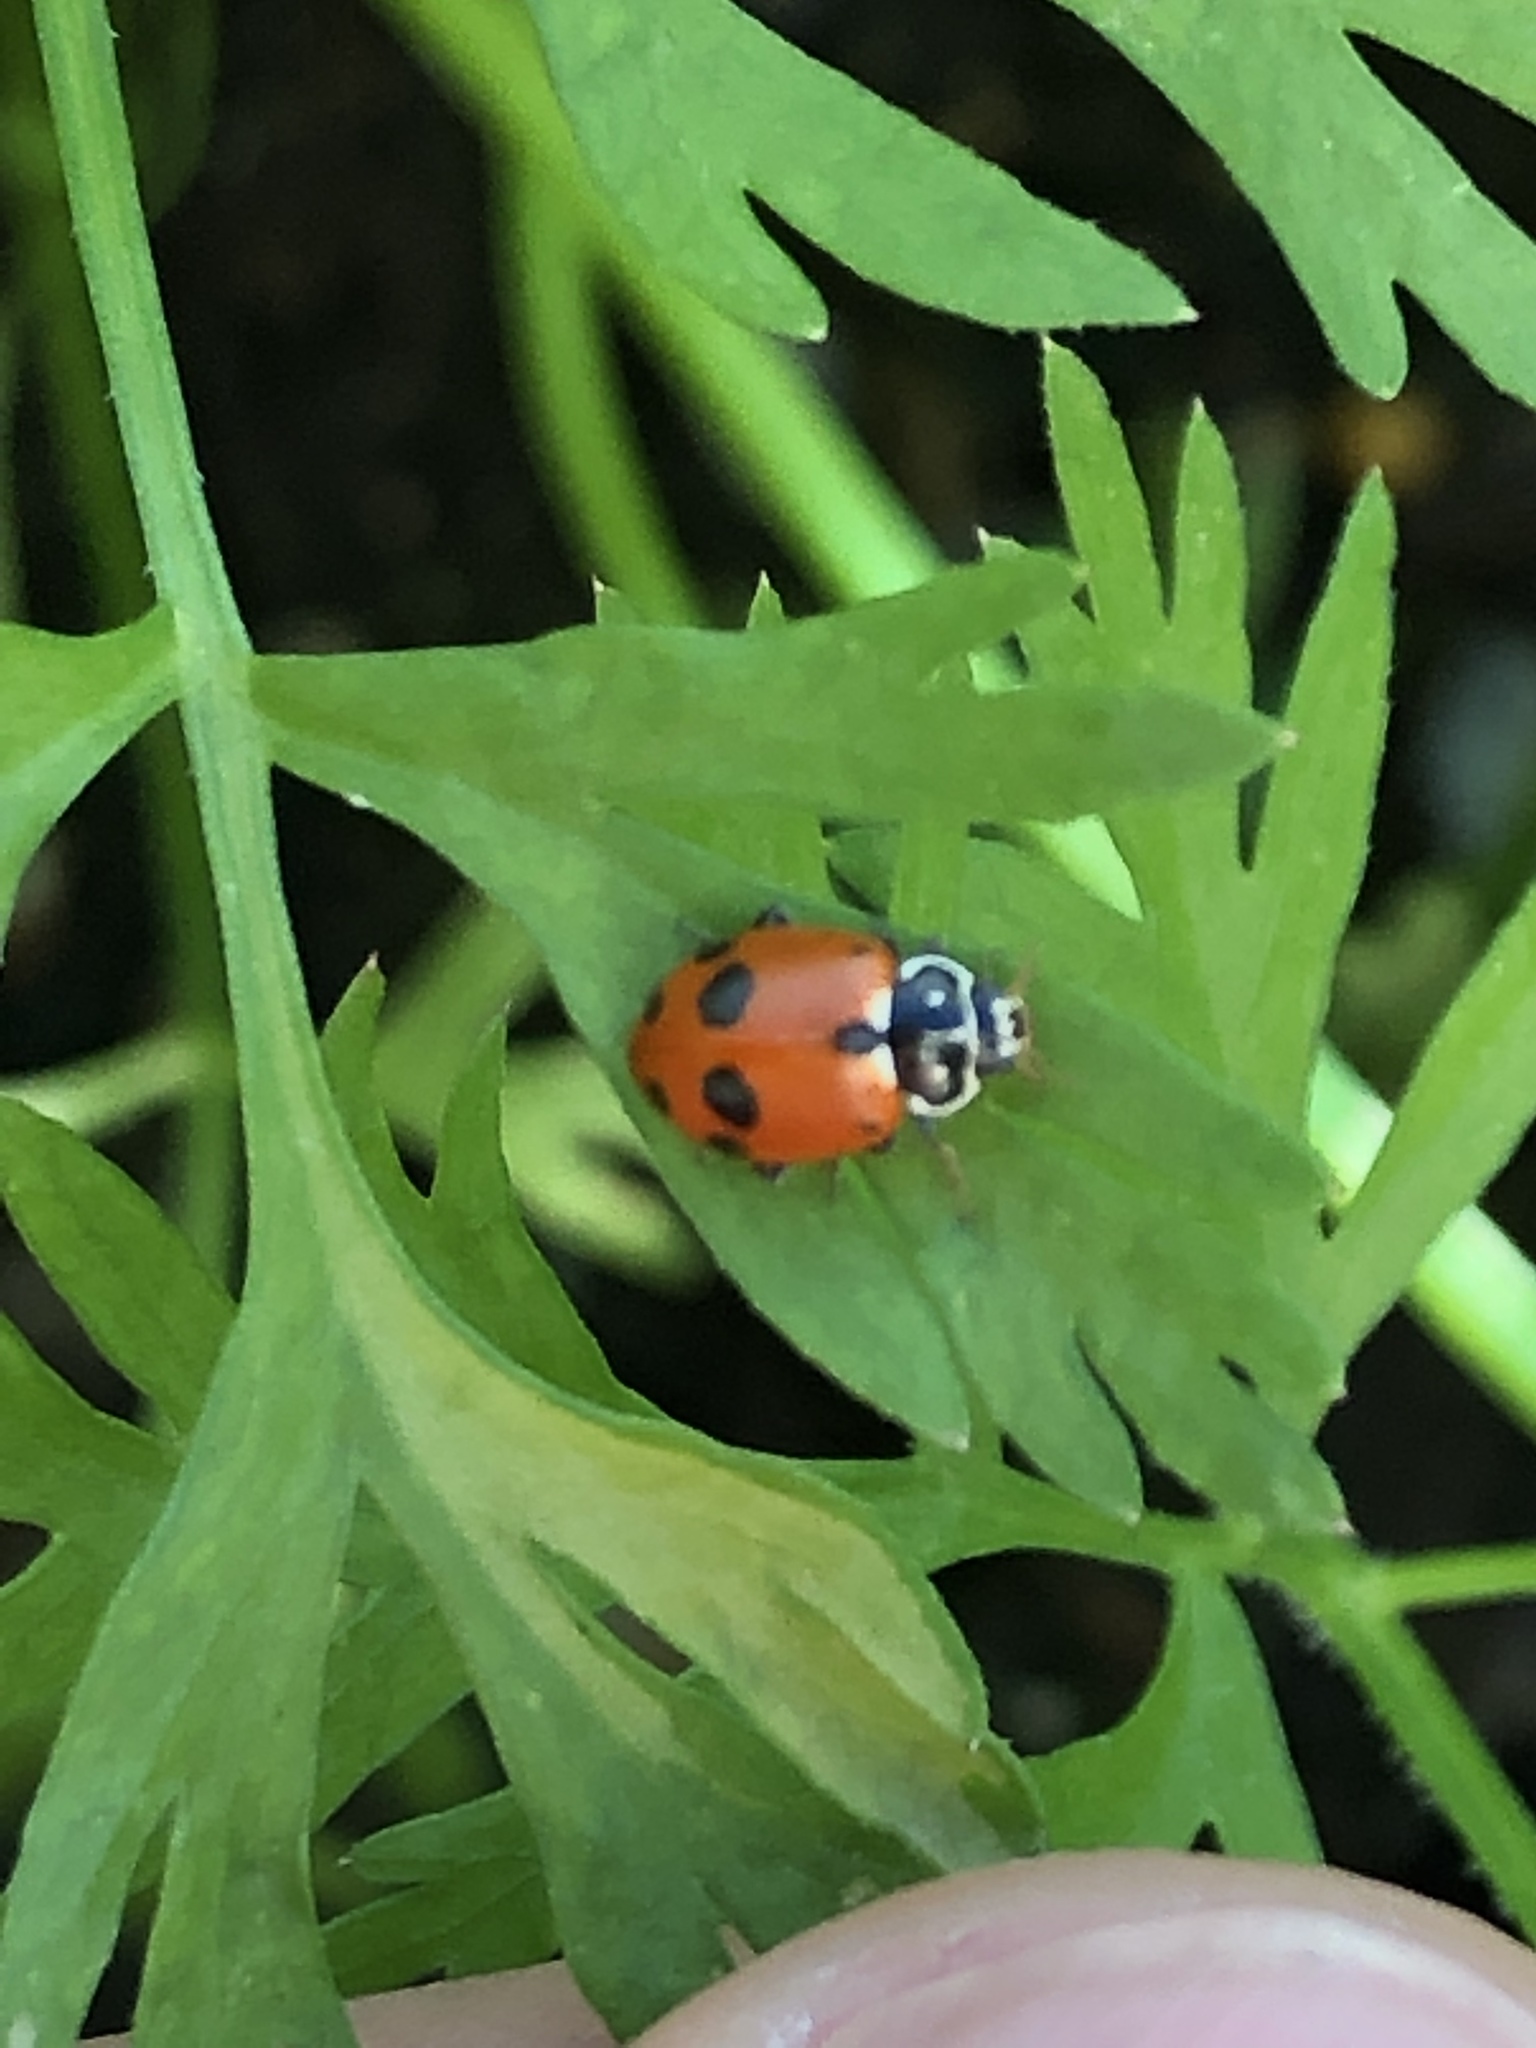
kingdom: Animalia
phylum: Arthropoda
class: Insecta
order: Coleoptera
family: Coccinellidae
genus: Hippodamia
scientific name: Hippodamia variegata
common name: Ladybird beetle
